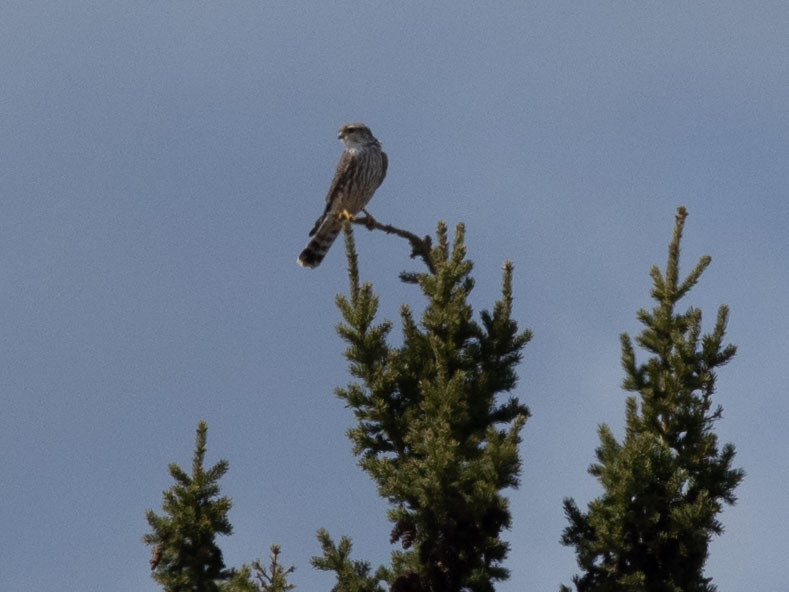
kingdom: Animalia
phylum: Chordata
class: Aves
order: Falconiformes
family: Falconidae
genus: Falco
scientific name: Falco columbarius
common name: Merlin
